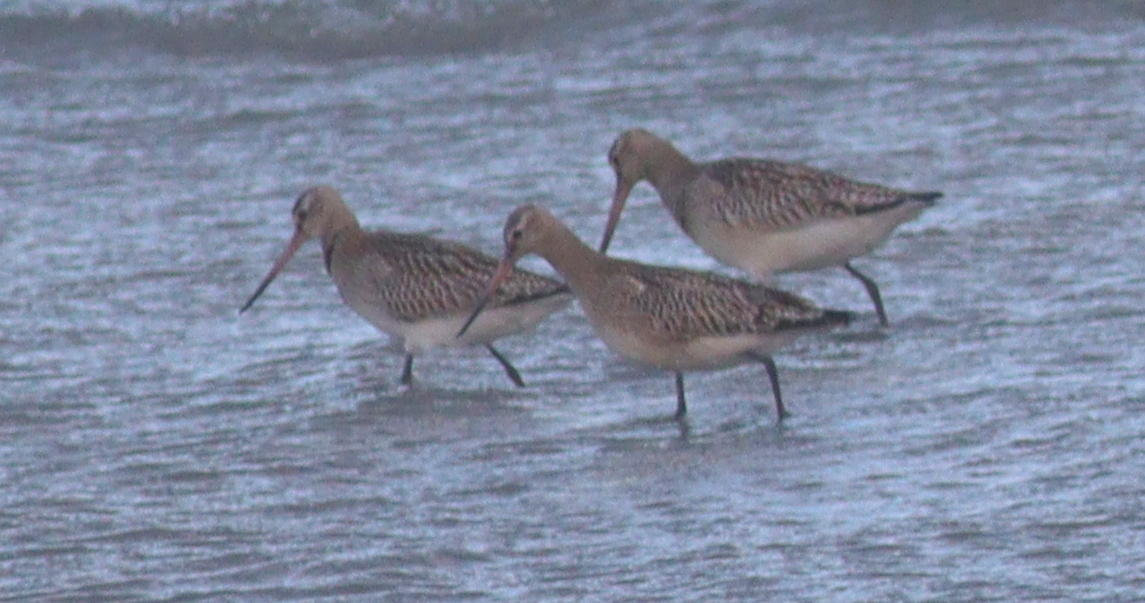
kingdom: Animalia
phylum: Chordata
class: Aves
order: Charadriiformes
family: Scolopacidae
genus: Limosa
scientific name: Limosa lapponica
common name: Bar-tailed godwit
